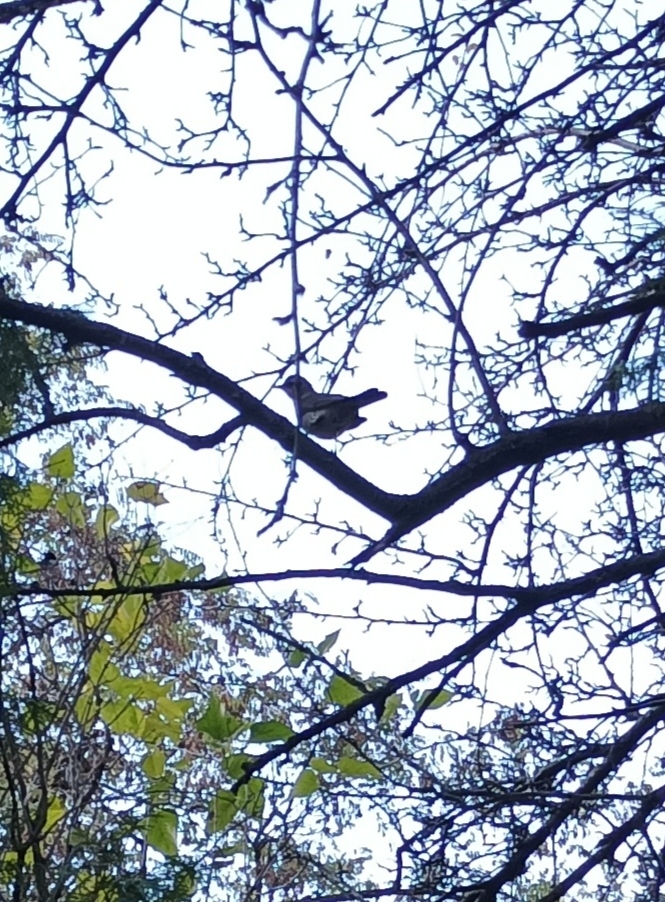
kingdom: Animalia
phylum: Chordata
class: Aves
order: Passeriformes
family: Turdidae
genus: Turdus
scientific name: Turdus pilaris
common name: Fieldfare
